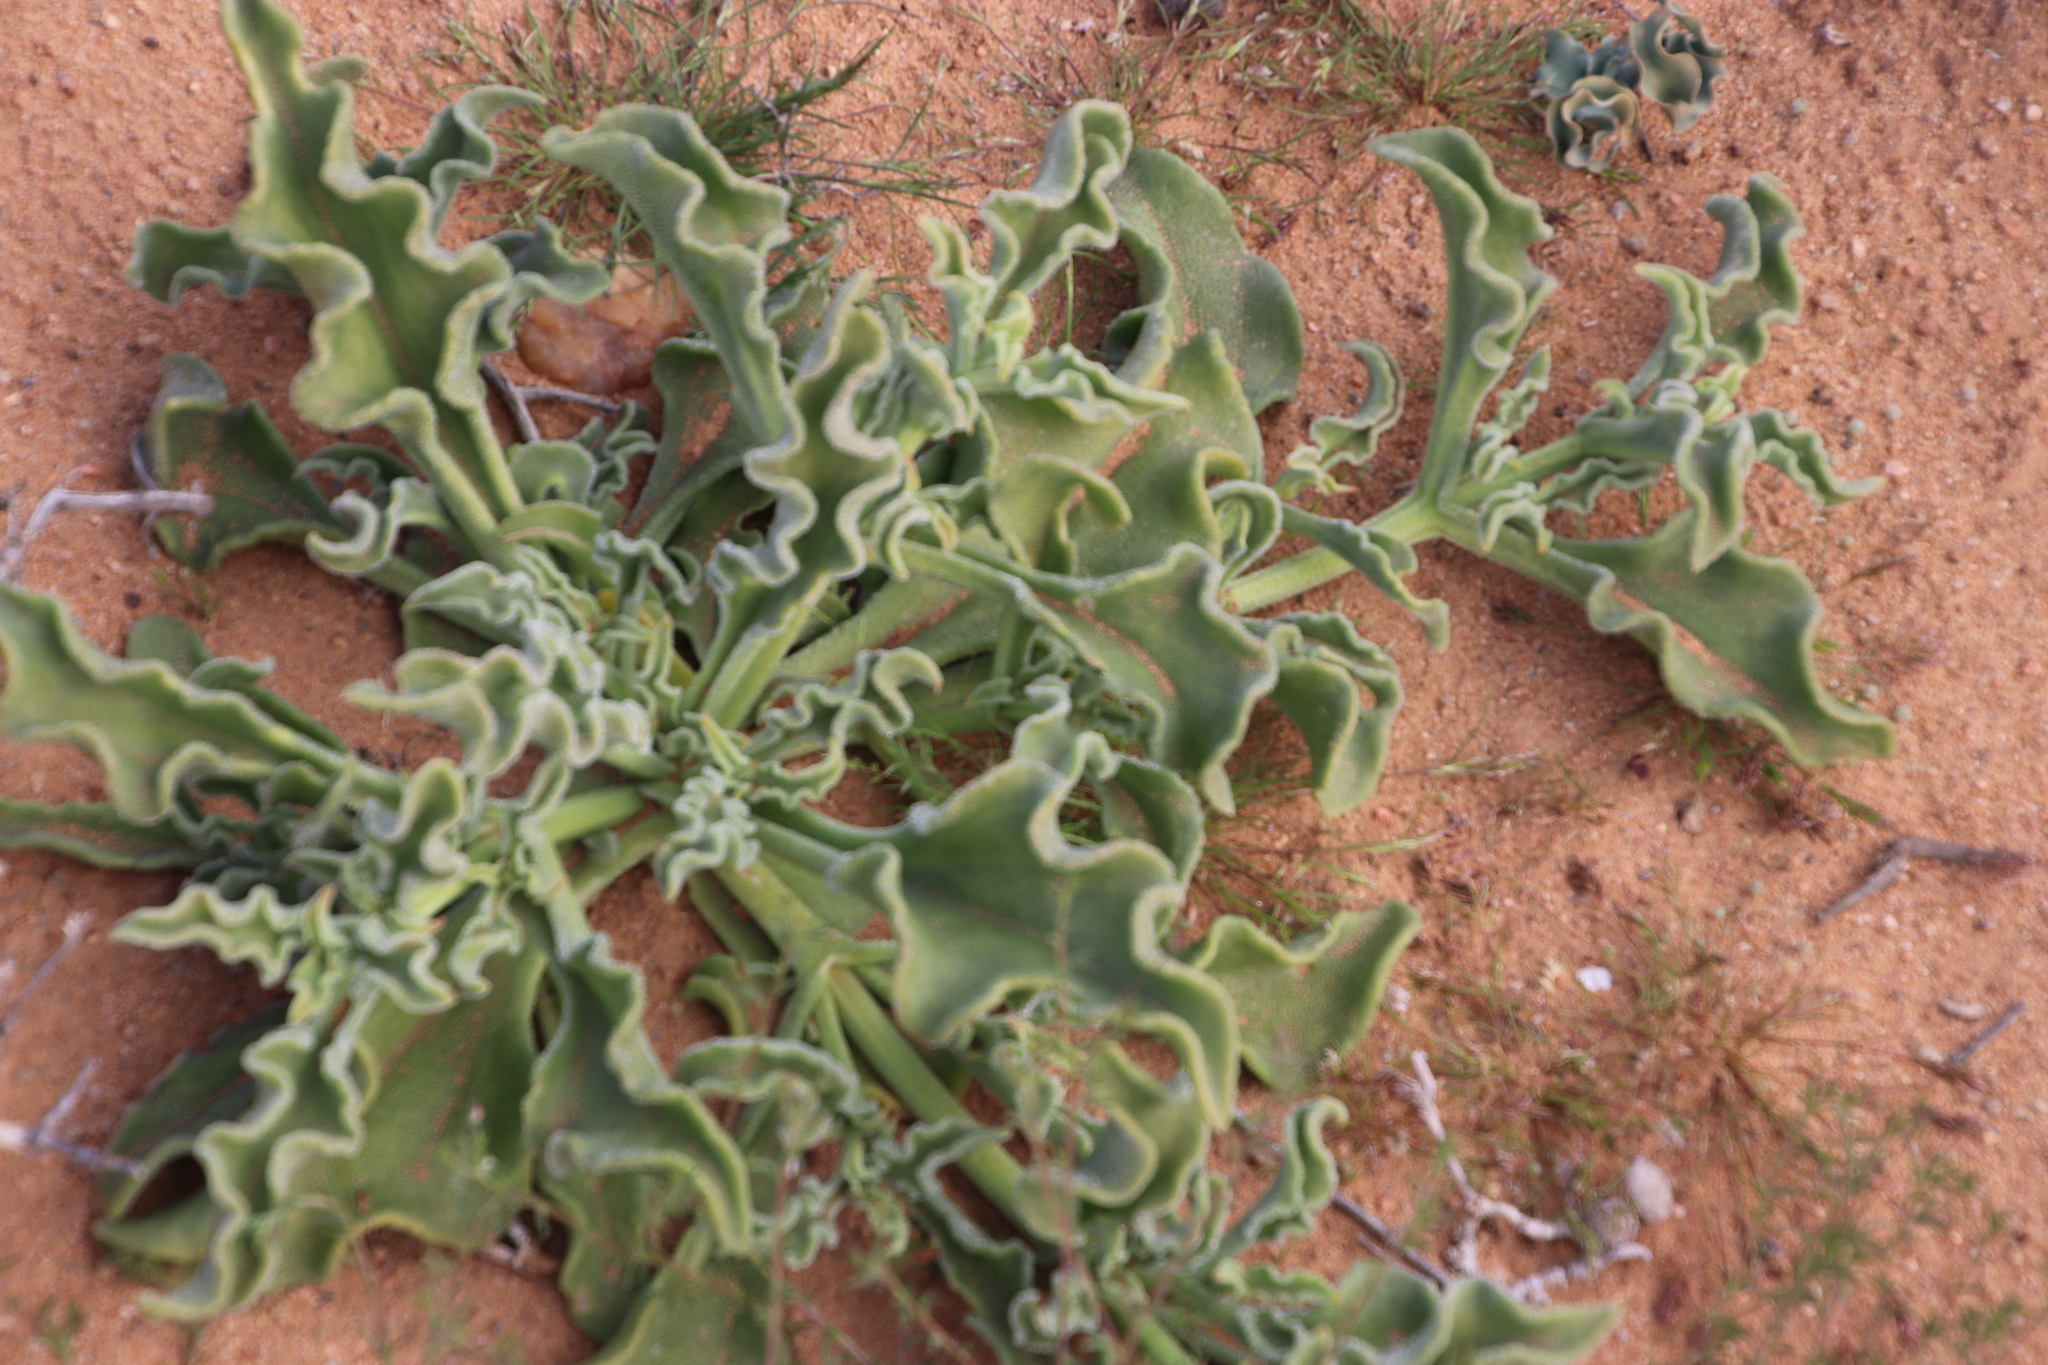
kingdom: Plantae
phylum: Tracheophyta
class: Magnoliopsida
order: Caryophyllales
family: Aizoaceae
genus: Mesembryanthemum
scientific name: Mesembryanthemum guerichianum
